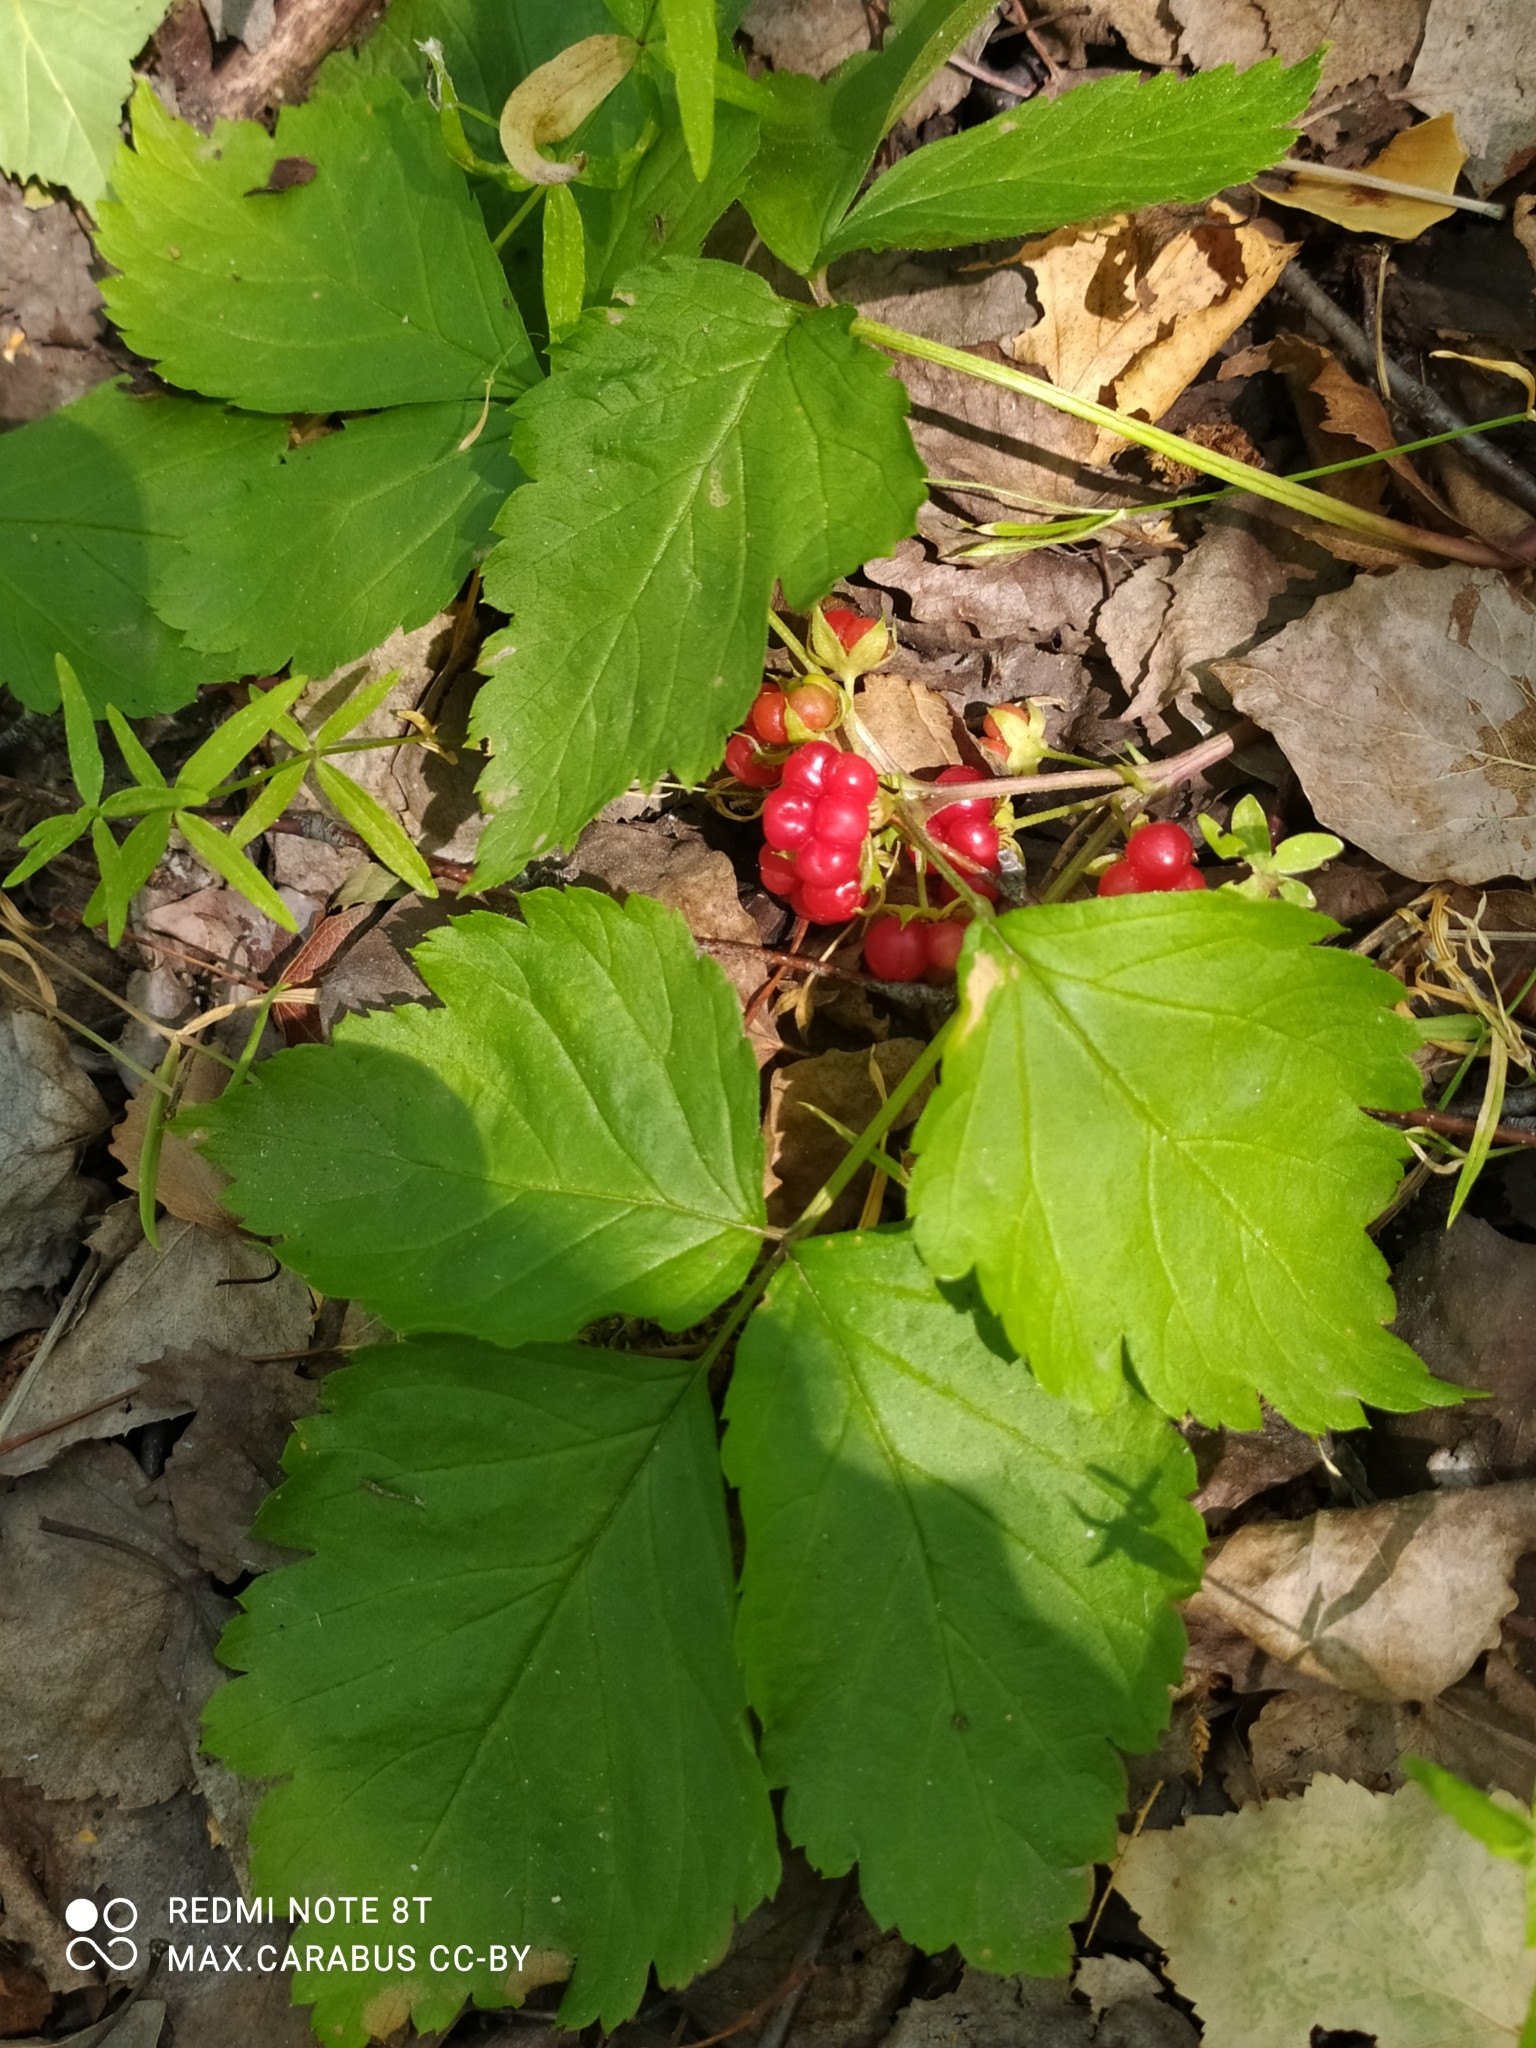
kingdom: Plantae
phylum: Tracheophyta
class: Magnoliopsida
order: Rosales
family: Rosaceae
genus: Rubus
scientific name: Rubus saxatilis
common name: Stone bramble
